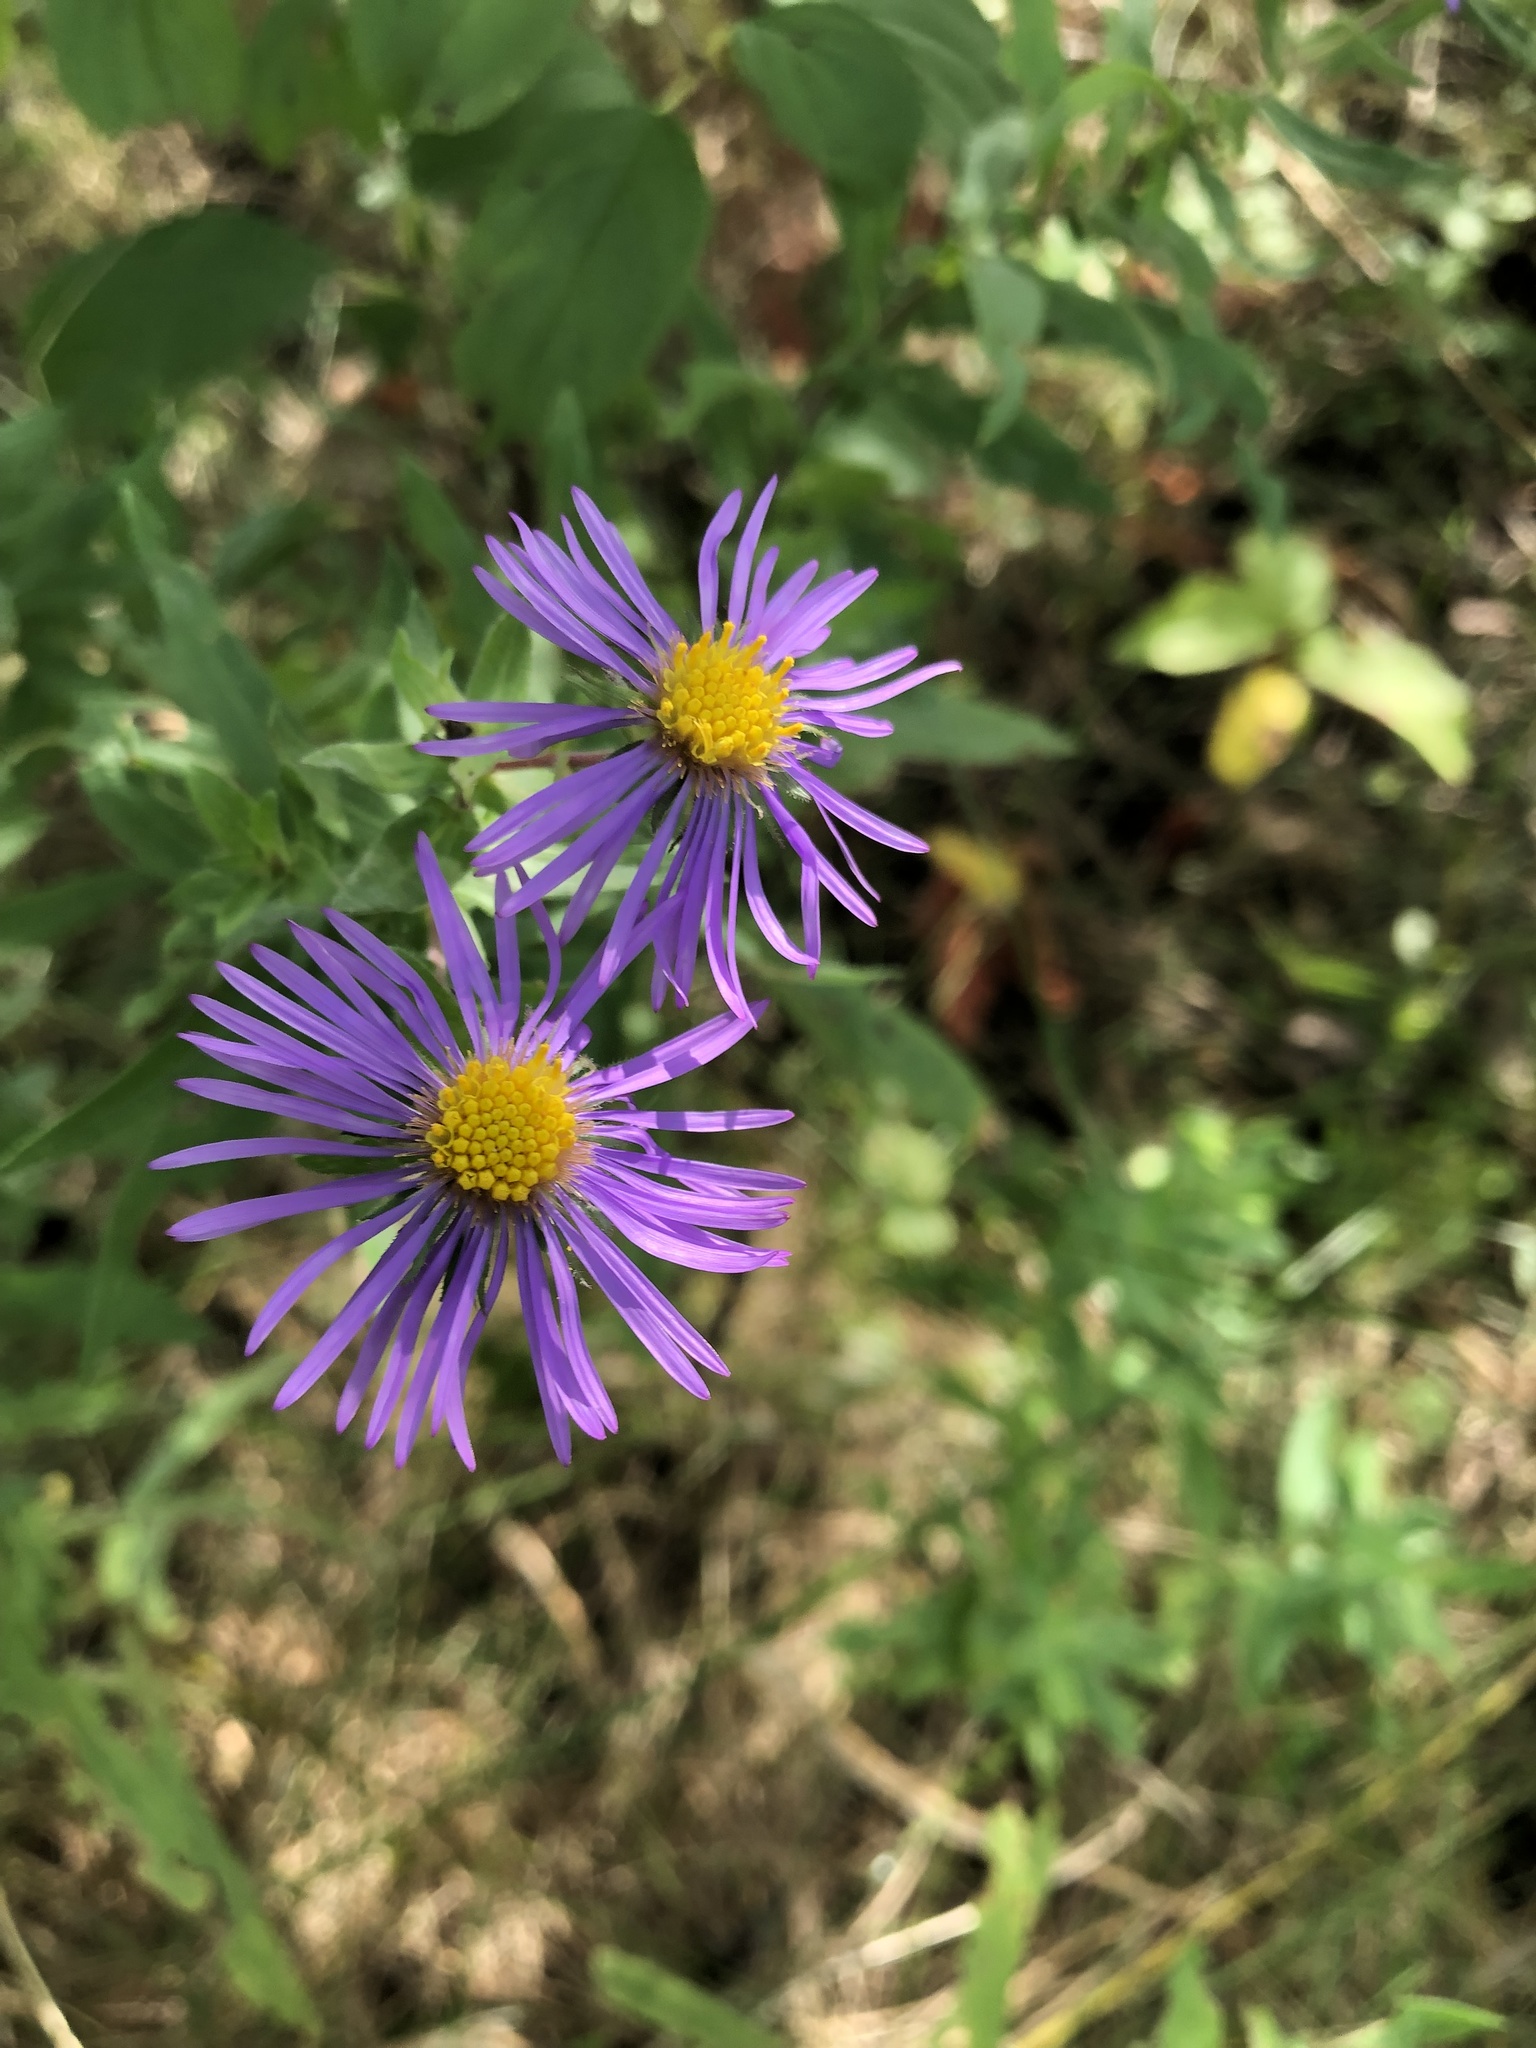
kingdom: Plantae
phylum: Tracheophyta
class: Magnoliopsida
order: Asterales
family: Asteraceae
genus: Symphyotrichum
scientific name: Symphyotrichum novae-angliae
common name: Michaelmas daisy
